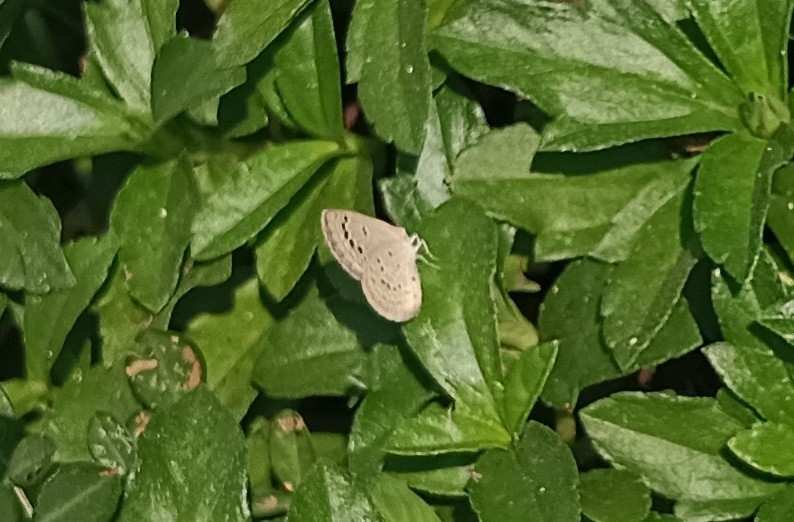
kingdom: Animalia
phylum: Arthropoda
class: Insecta
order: Lepidoptera
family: Lycaenidae
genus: Zizina
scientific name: Zizina otis
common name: Lesser grass blue
